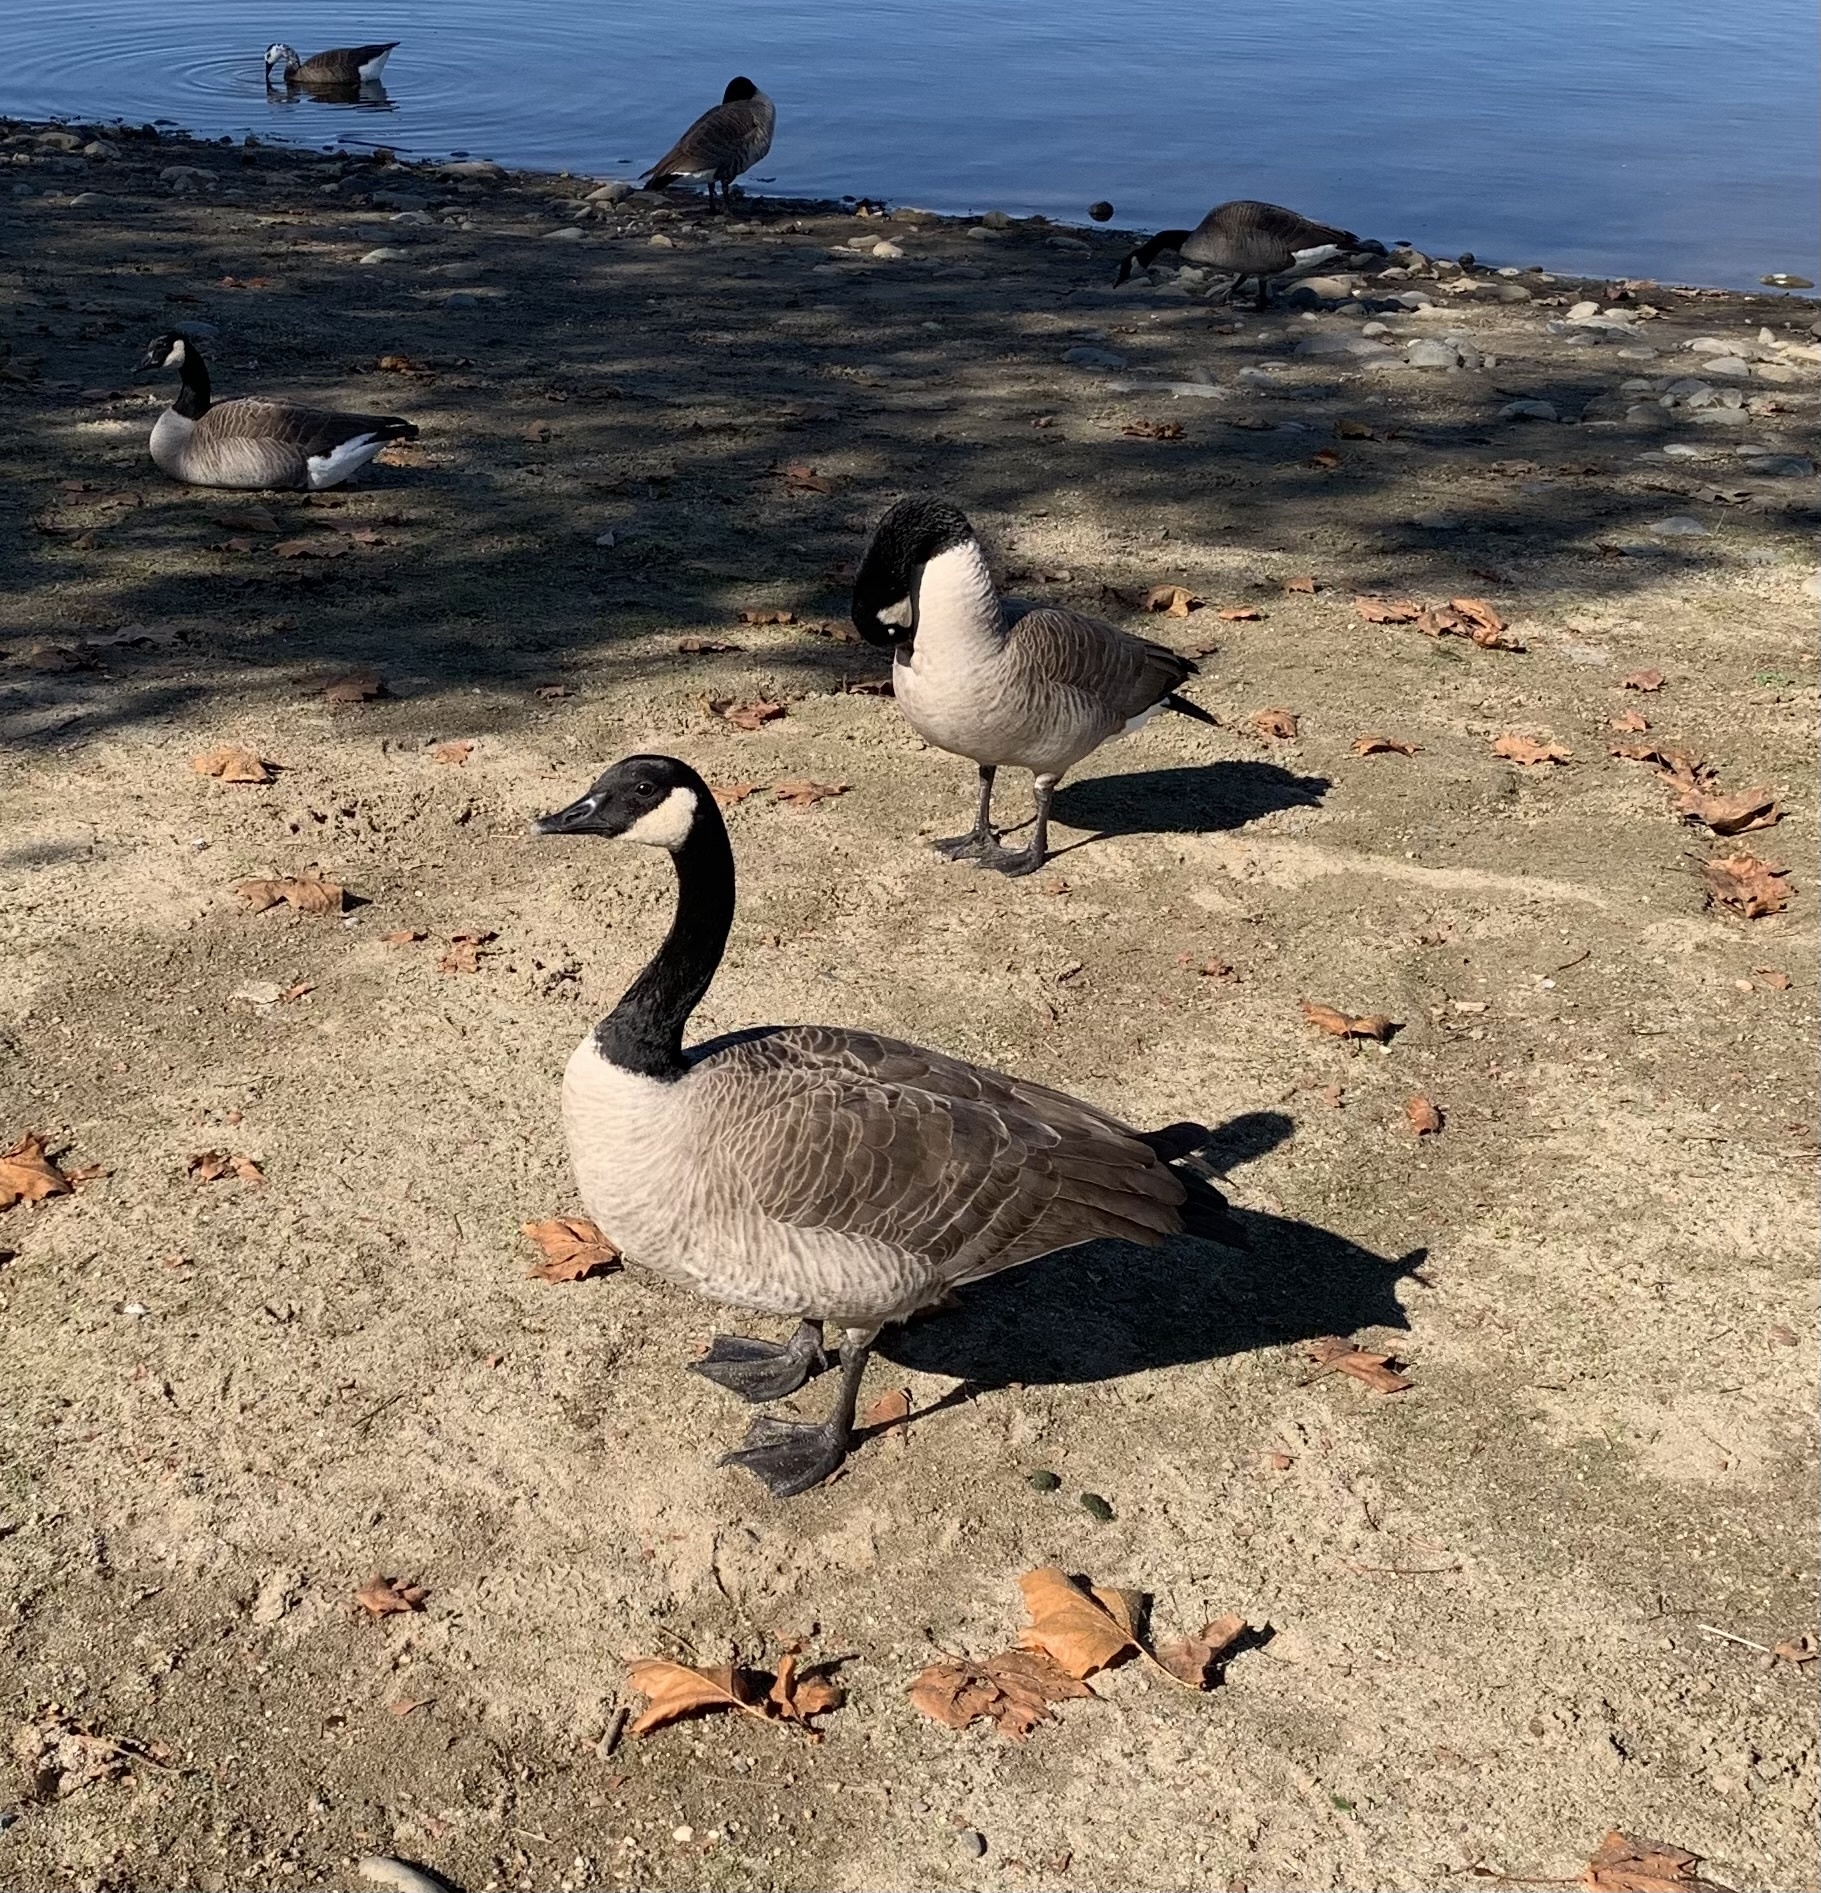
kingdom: Animalia
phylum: Chordata
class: Aves
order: Anseriformes
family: Anatidae
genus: Branta
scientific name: Branta canadensis
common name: Canada goose
